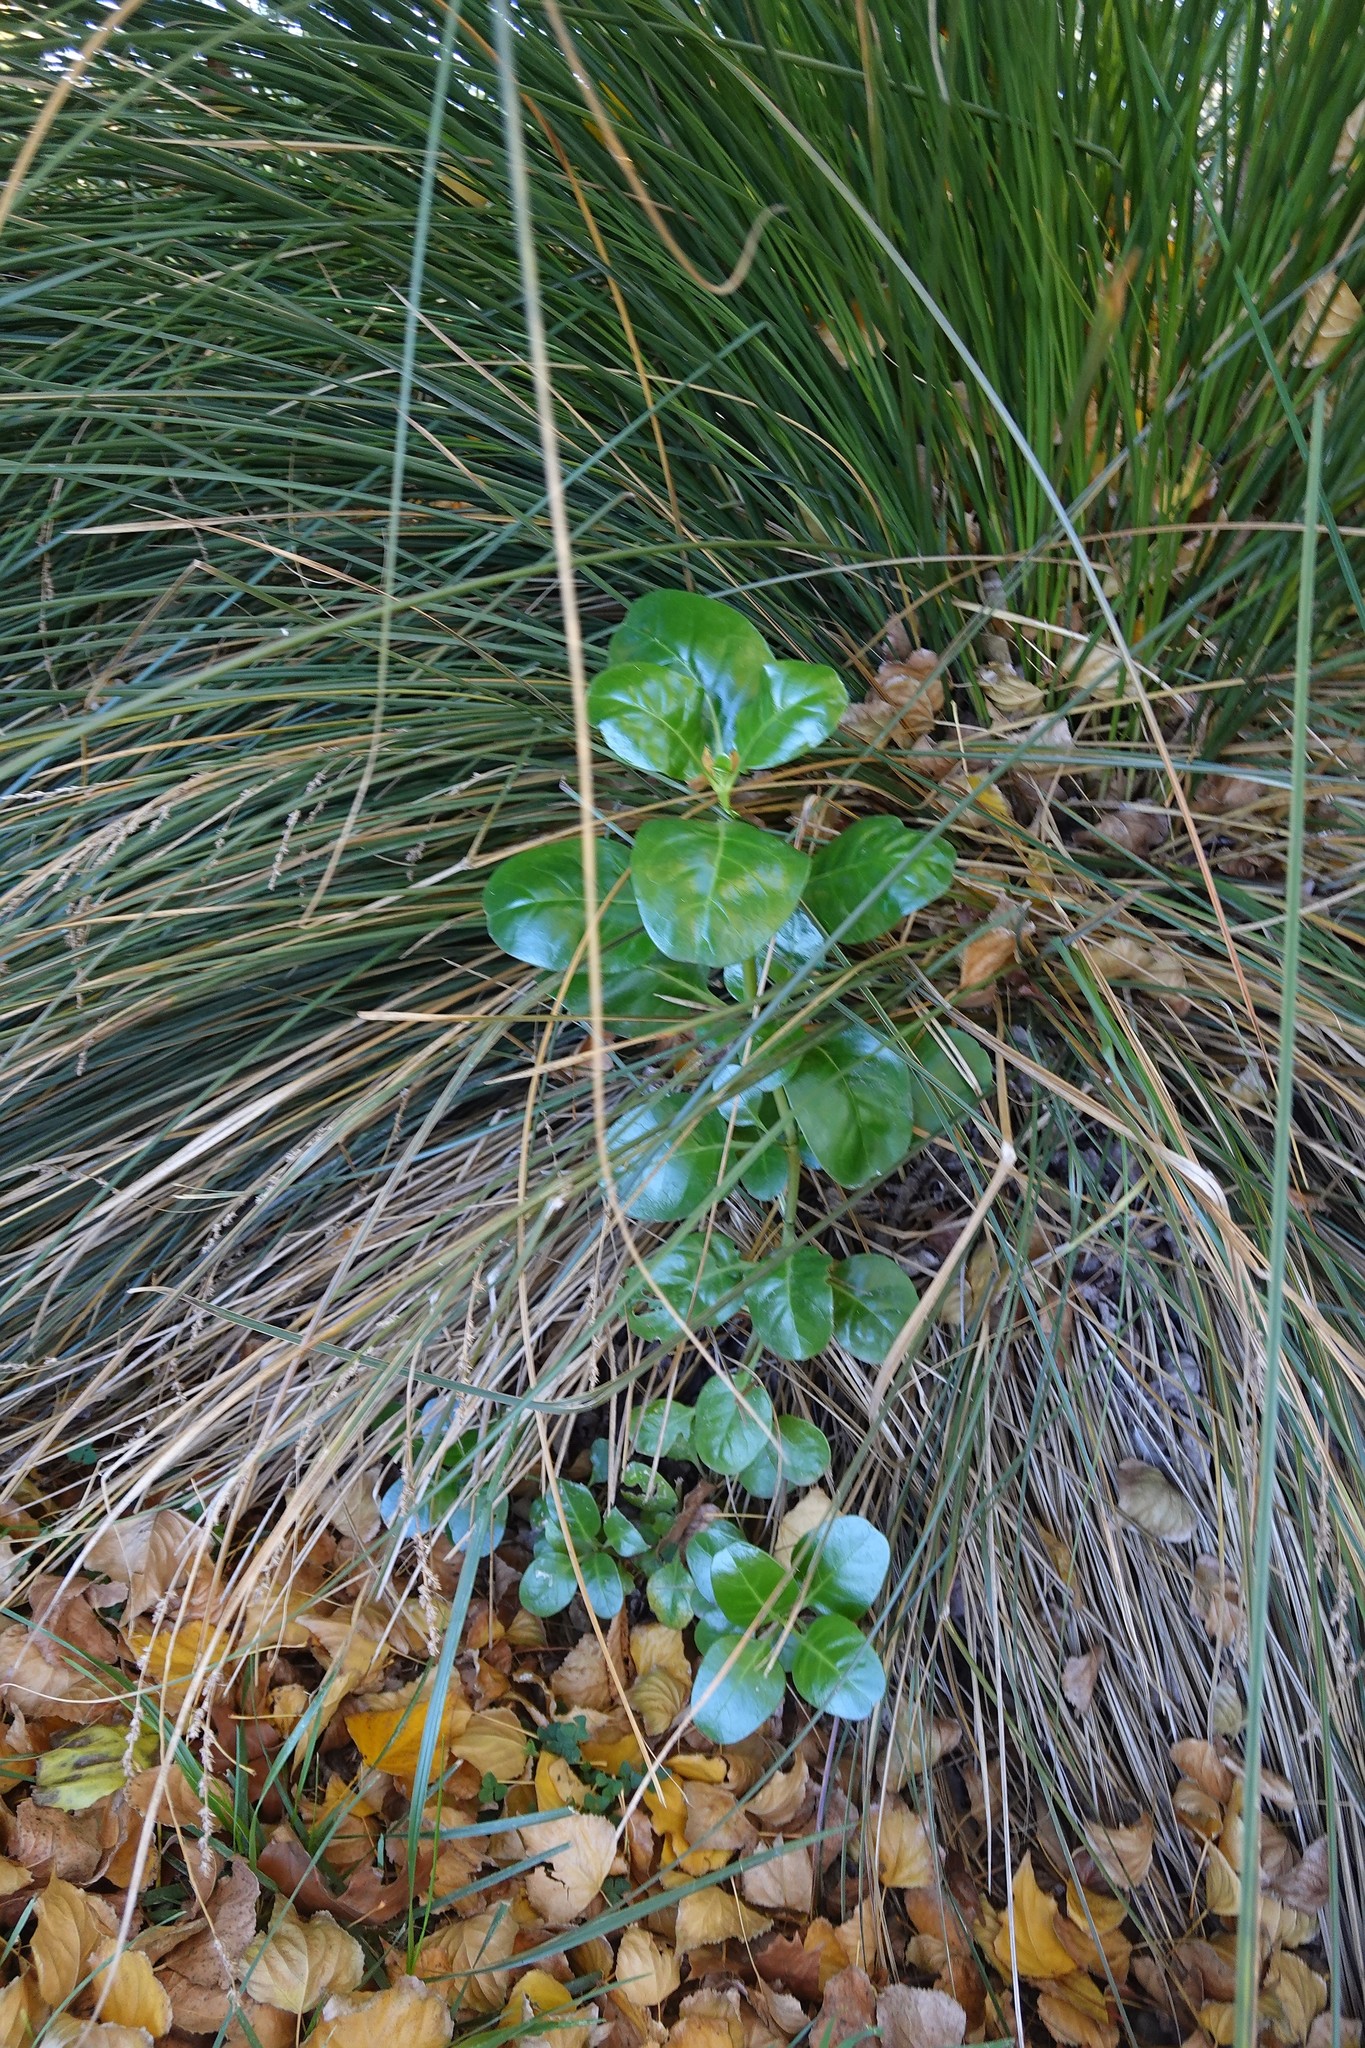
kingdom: Plantae
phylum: Tracheophyta
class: Magnoliopsida
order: Gentianales
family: Rubiaceae
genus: Coprosma
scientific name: Coprosma repens
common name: Tree bedstraw
